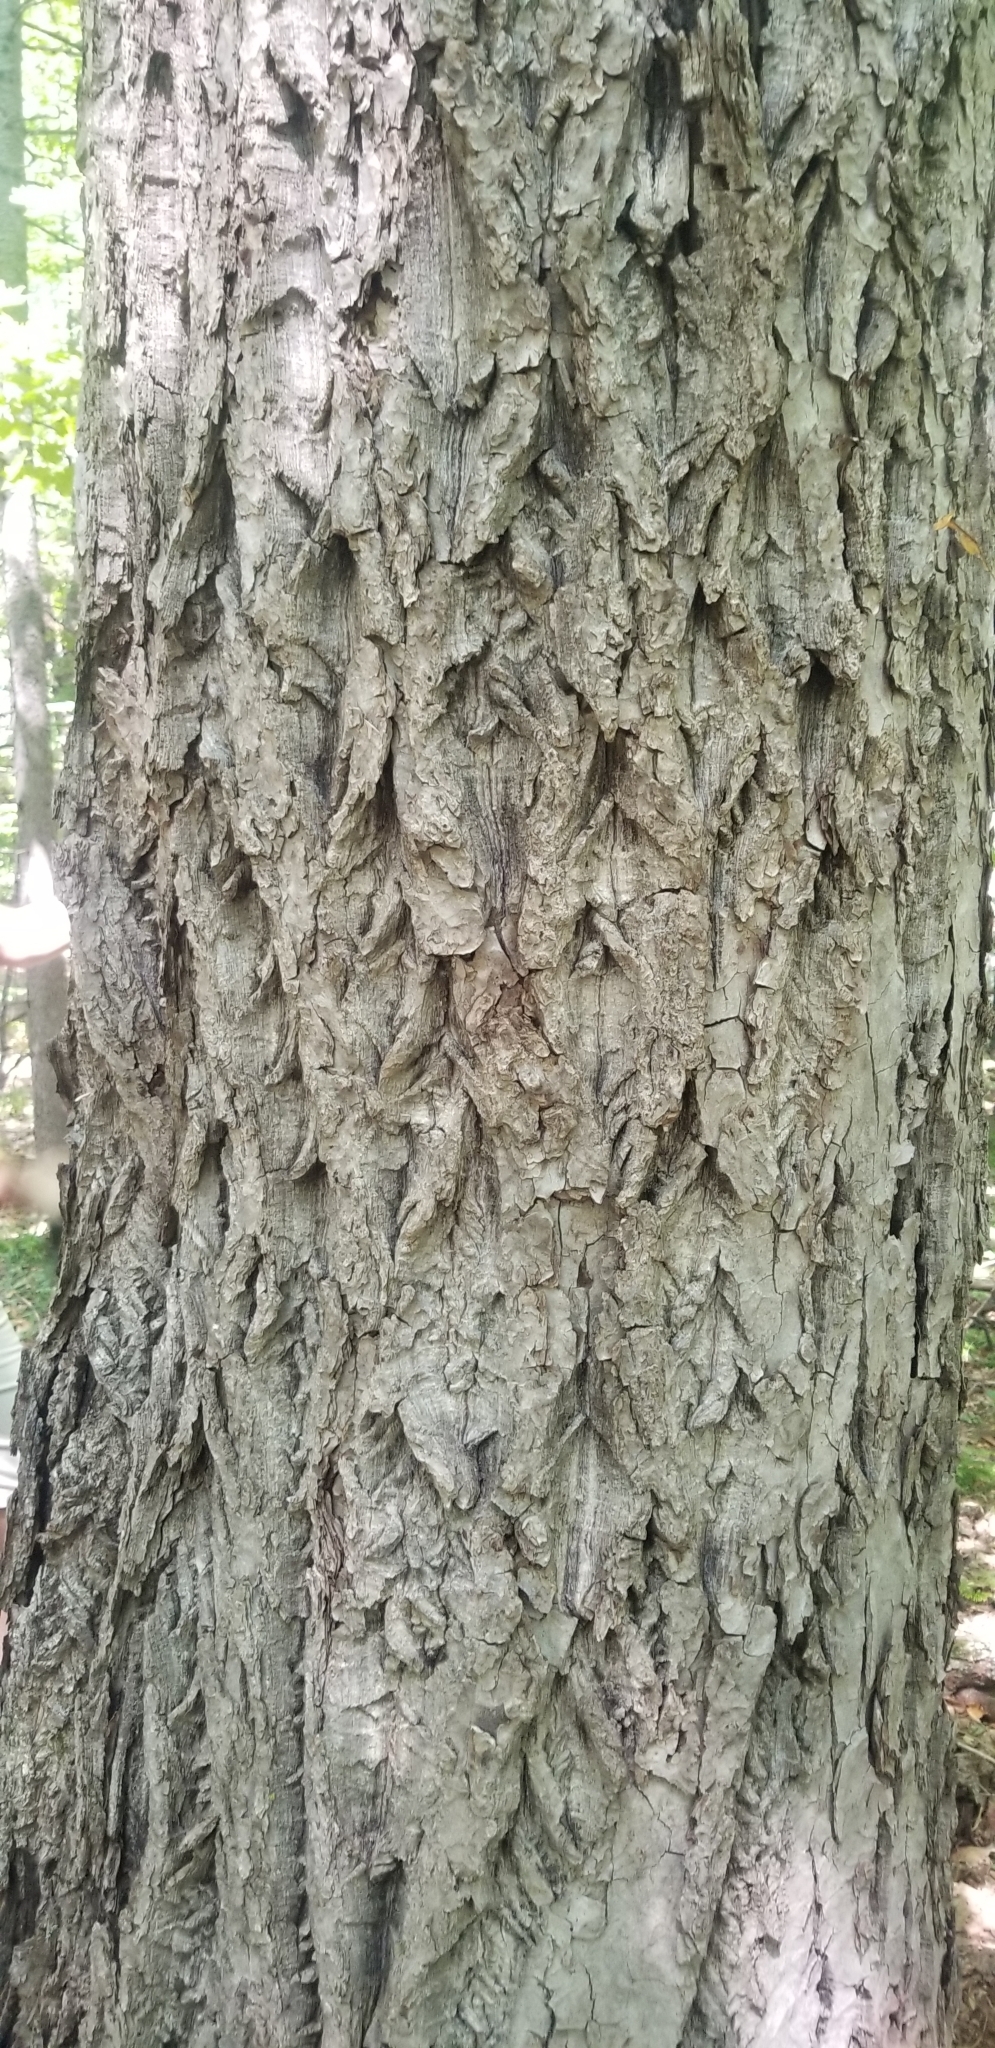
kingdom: Plantae
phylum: Tracheophyta
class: Magnoliopsida
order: Fagales
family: Juglandaceae
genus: Juglans
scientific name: Juglans cinerea
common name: Butternut
